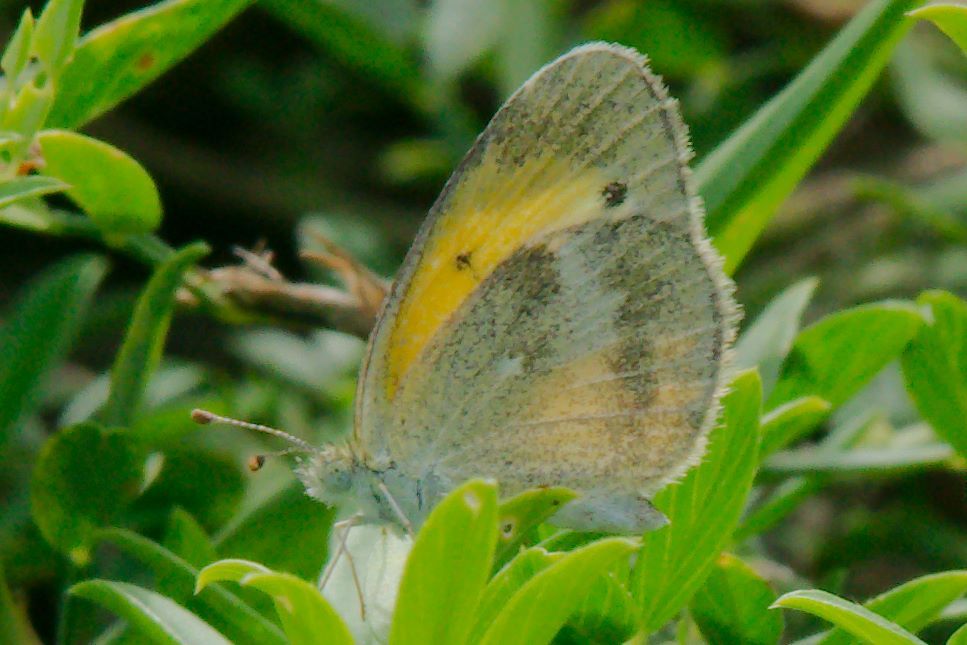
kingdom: Animalia
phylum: Arthropoda
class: Insecta
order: Lepidoptera
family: Pieridae
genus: Nathalis
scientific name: Nathalis iole
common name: Dainty sulphur
